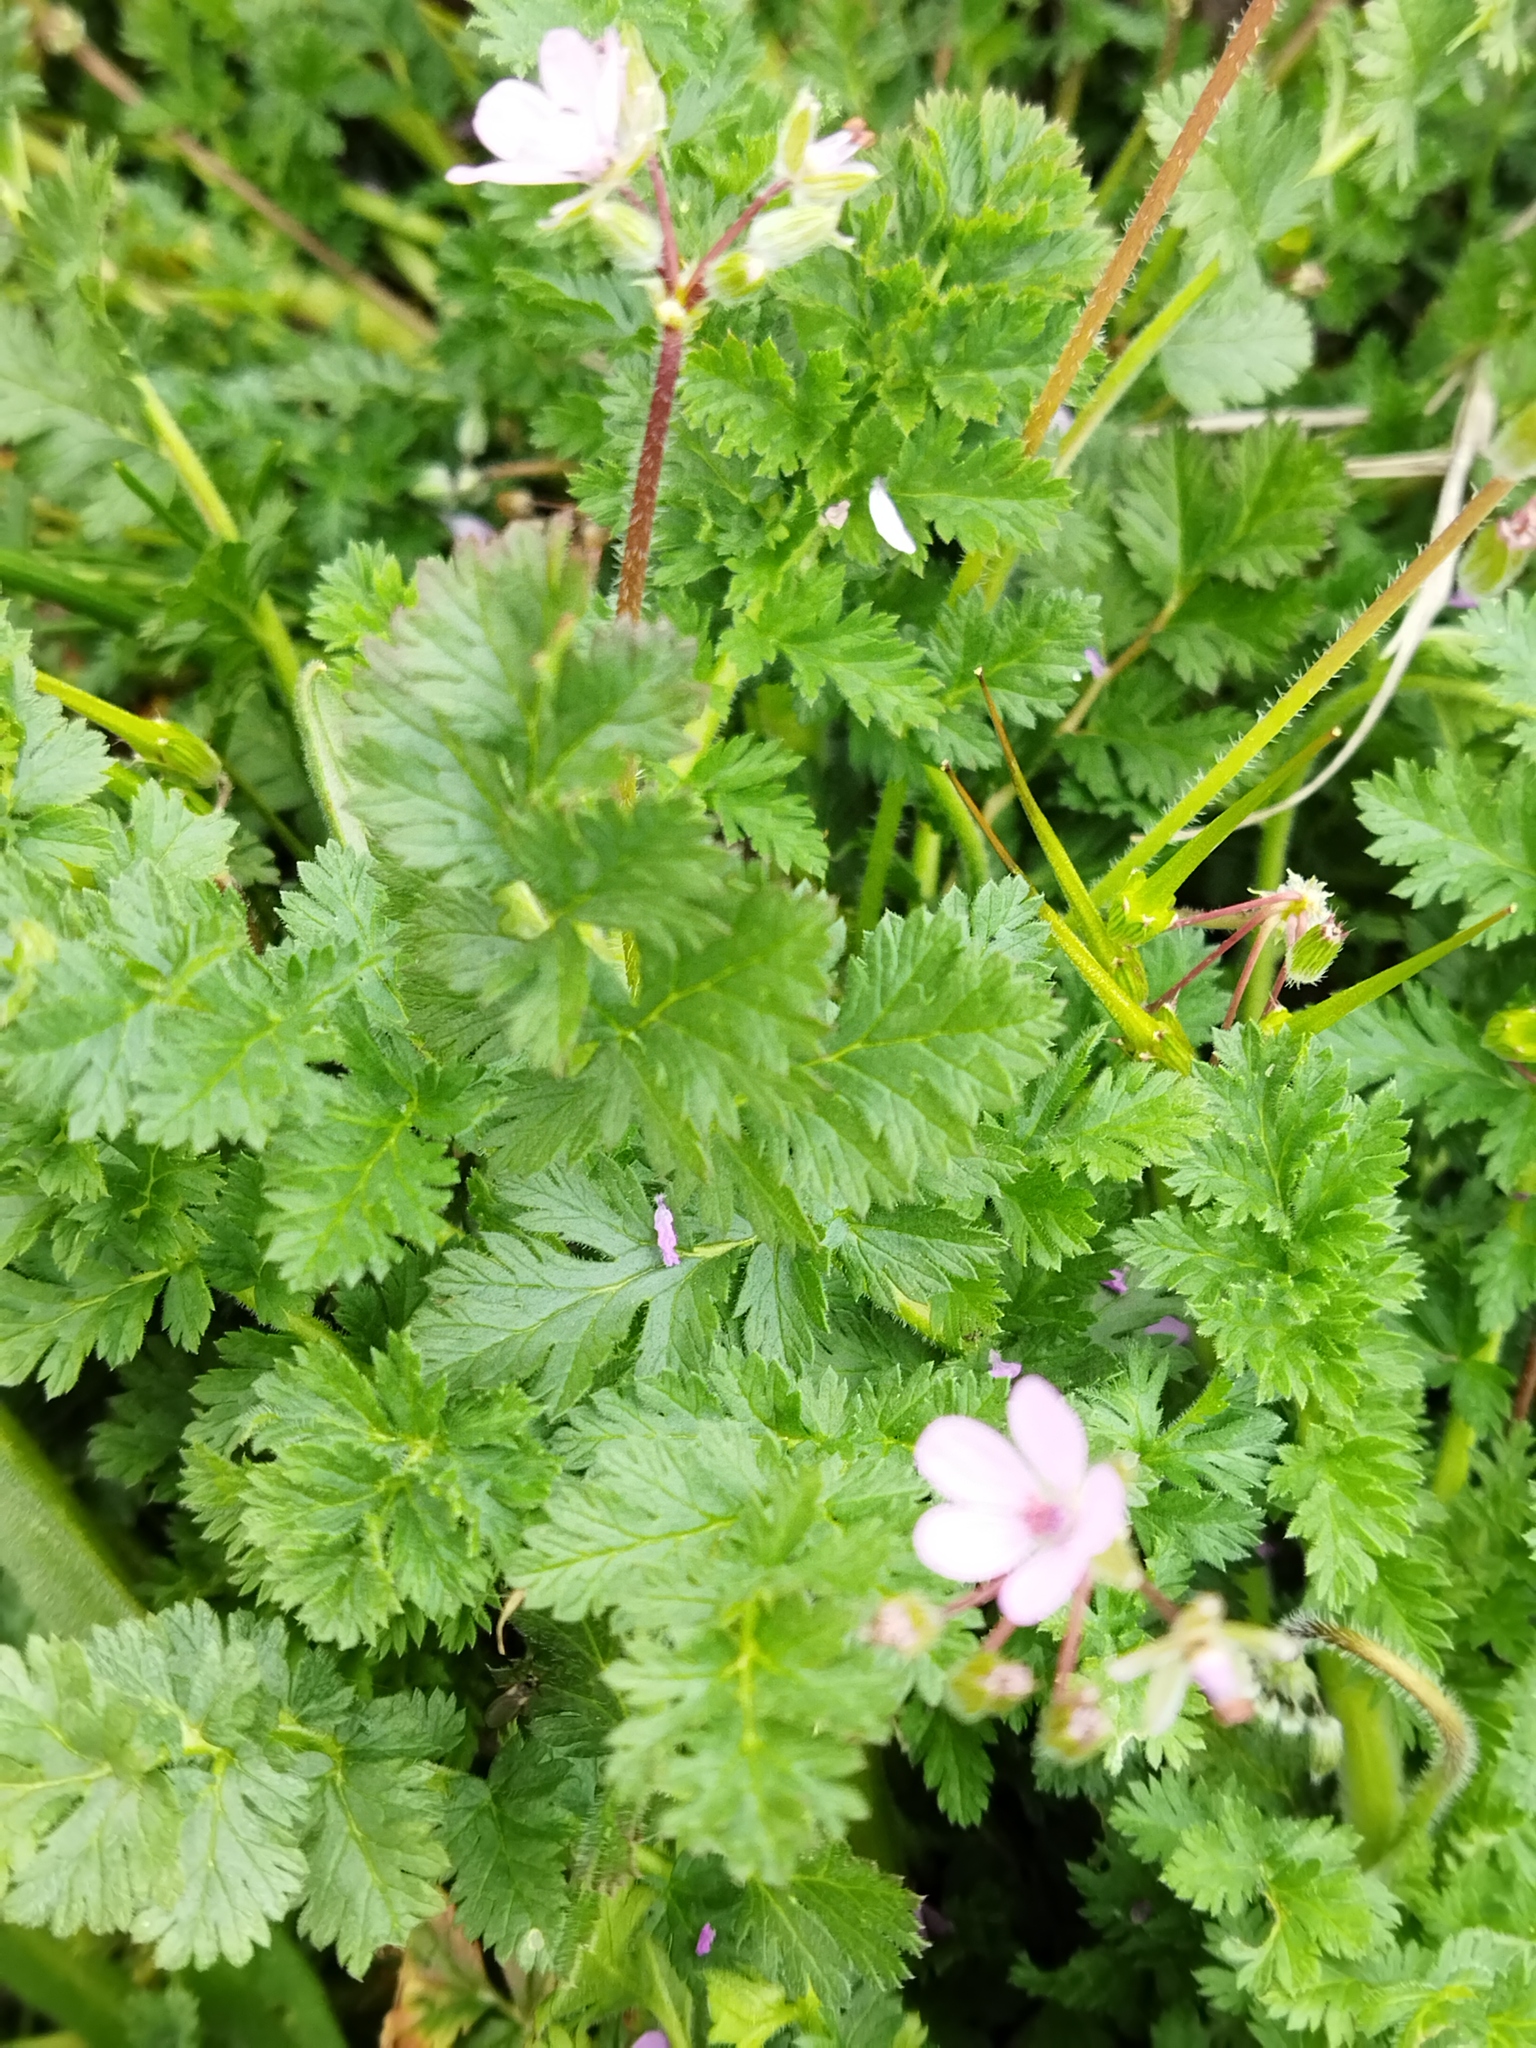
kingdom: Plantae
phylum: Tracheophyta
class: Magnoliopsida
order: Geraniales
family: Geraniaceae
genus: Erodium
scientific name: Erodium cicutarium
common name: Common stork's-bill
